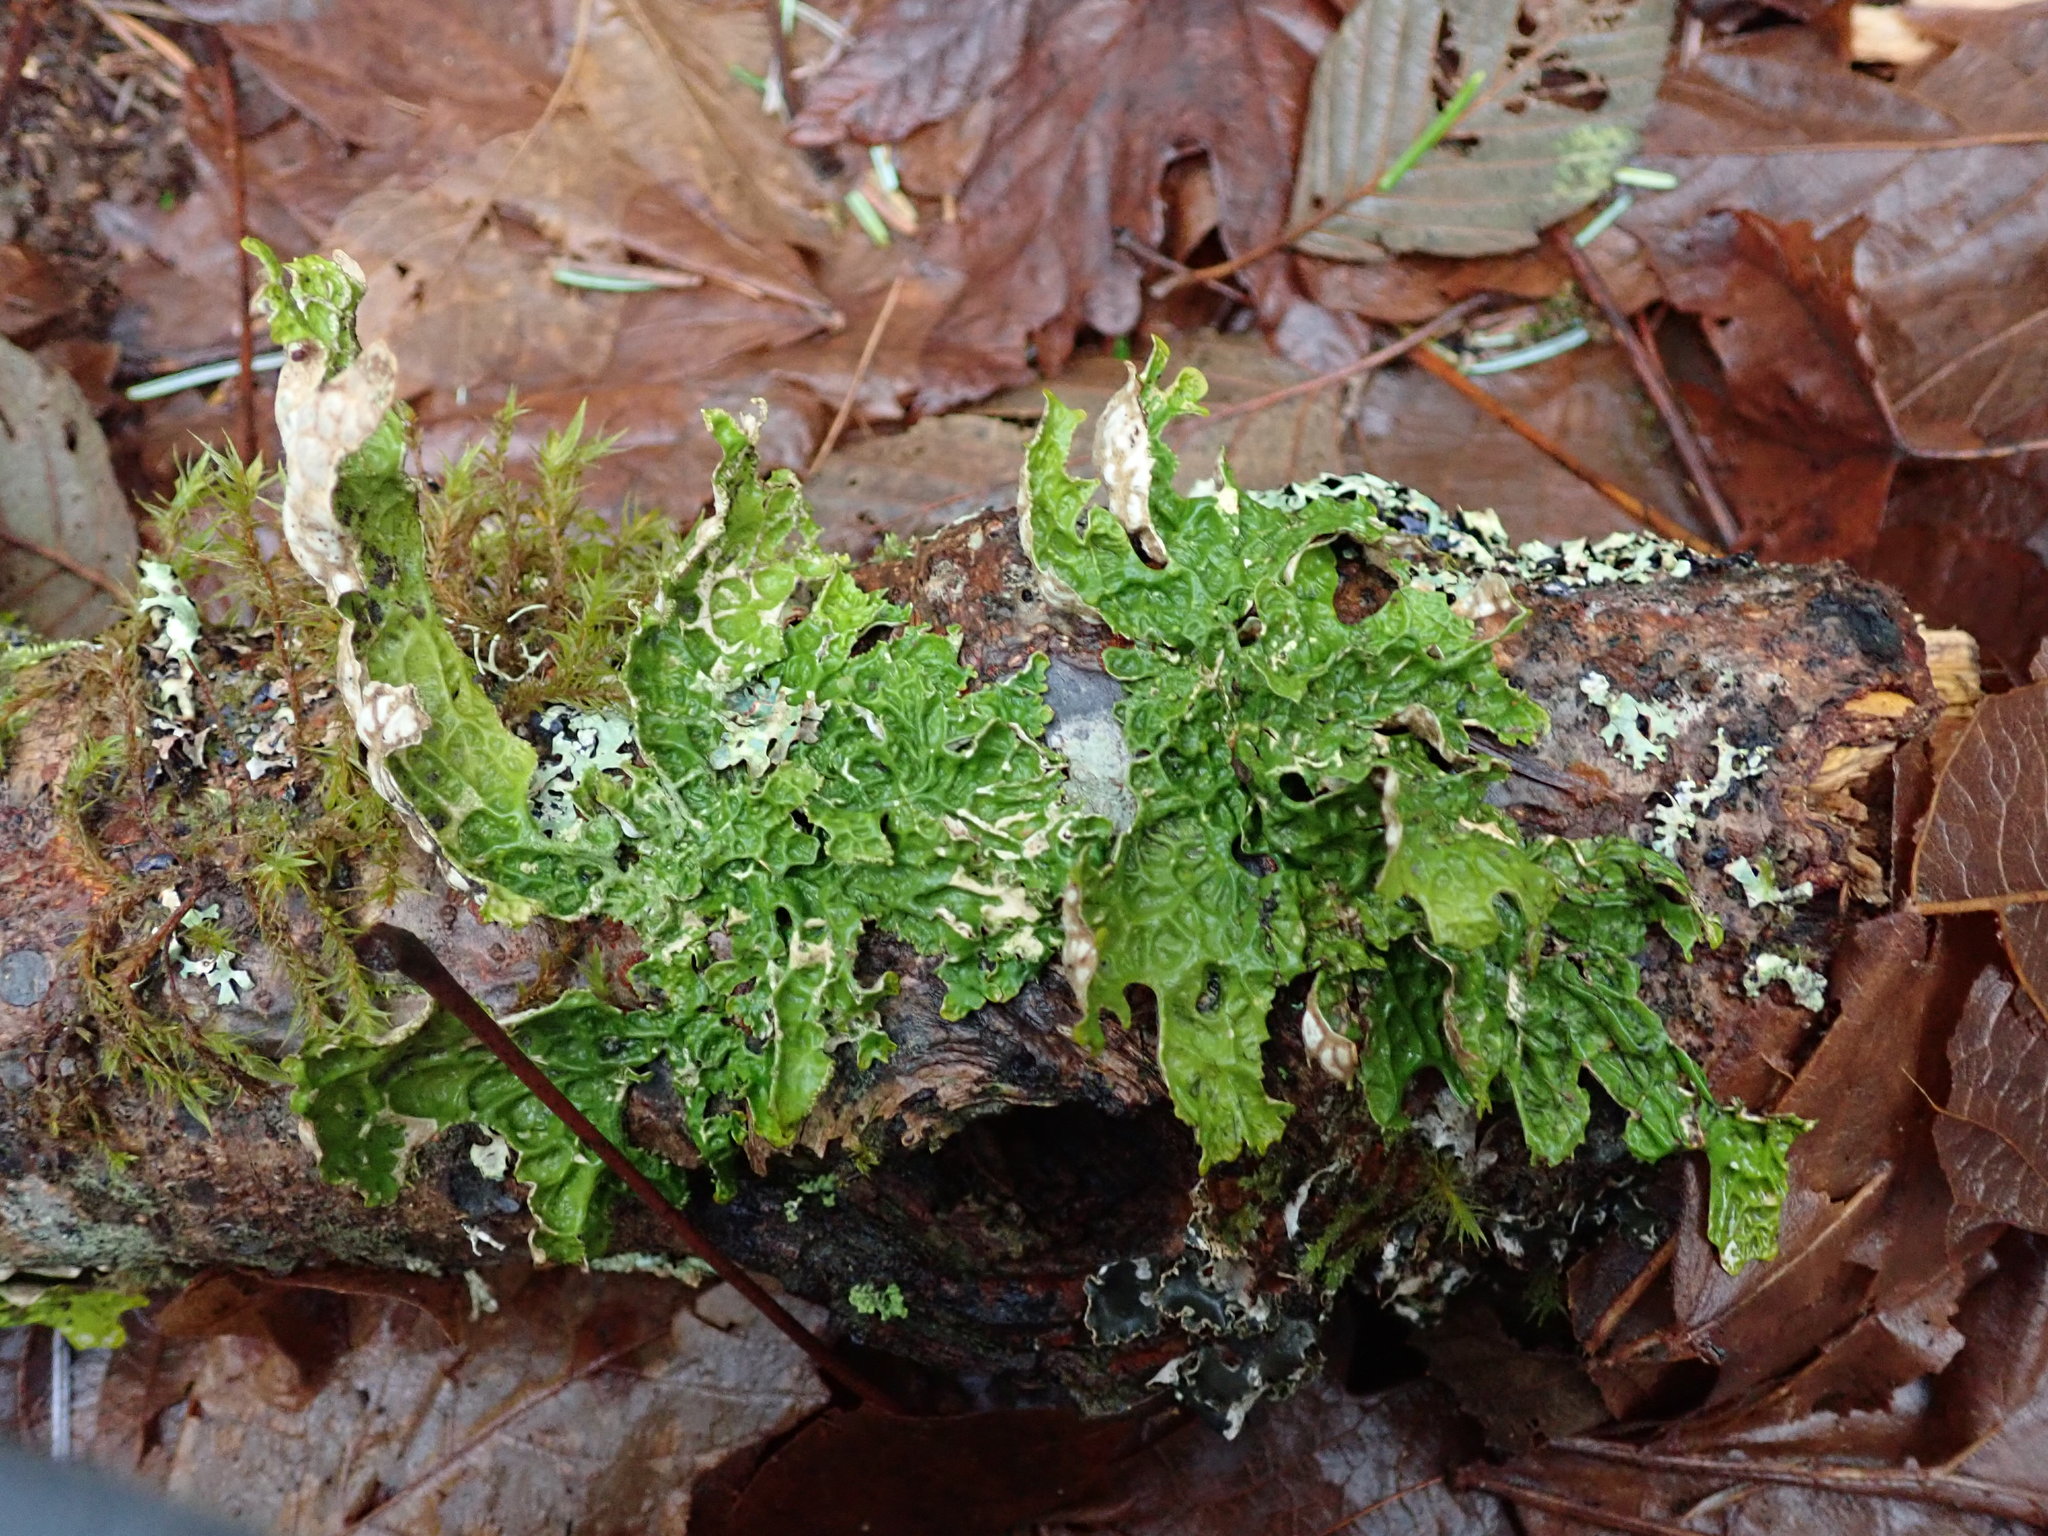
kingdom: Fungi
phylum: Ascomycota
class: Lecanoromycetes
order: Peltigerales
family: Lobariaceae
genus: Lobaria
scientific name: Lobaria pulmonaria
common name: Lungwort
